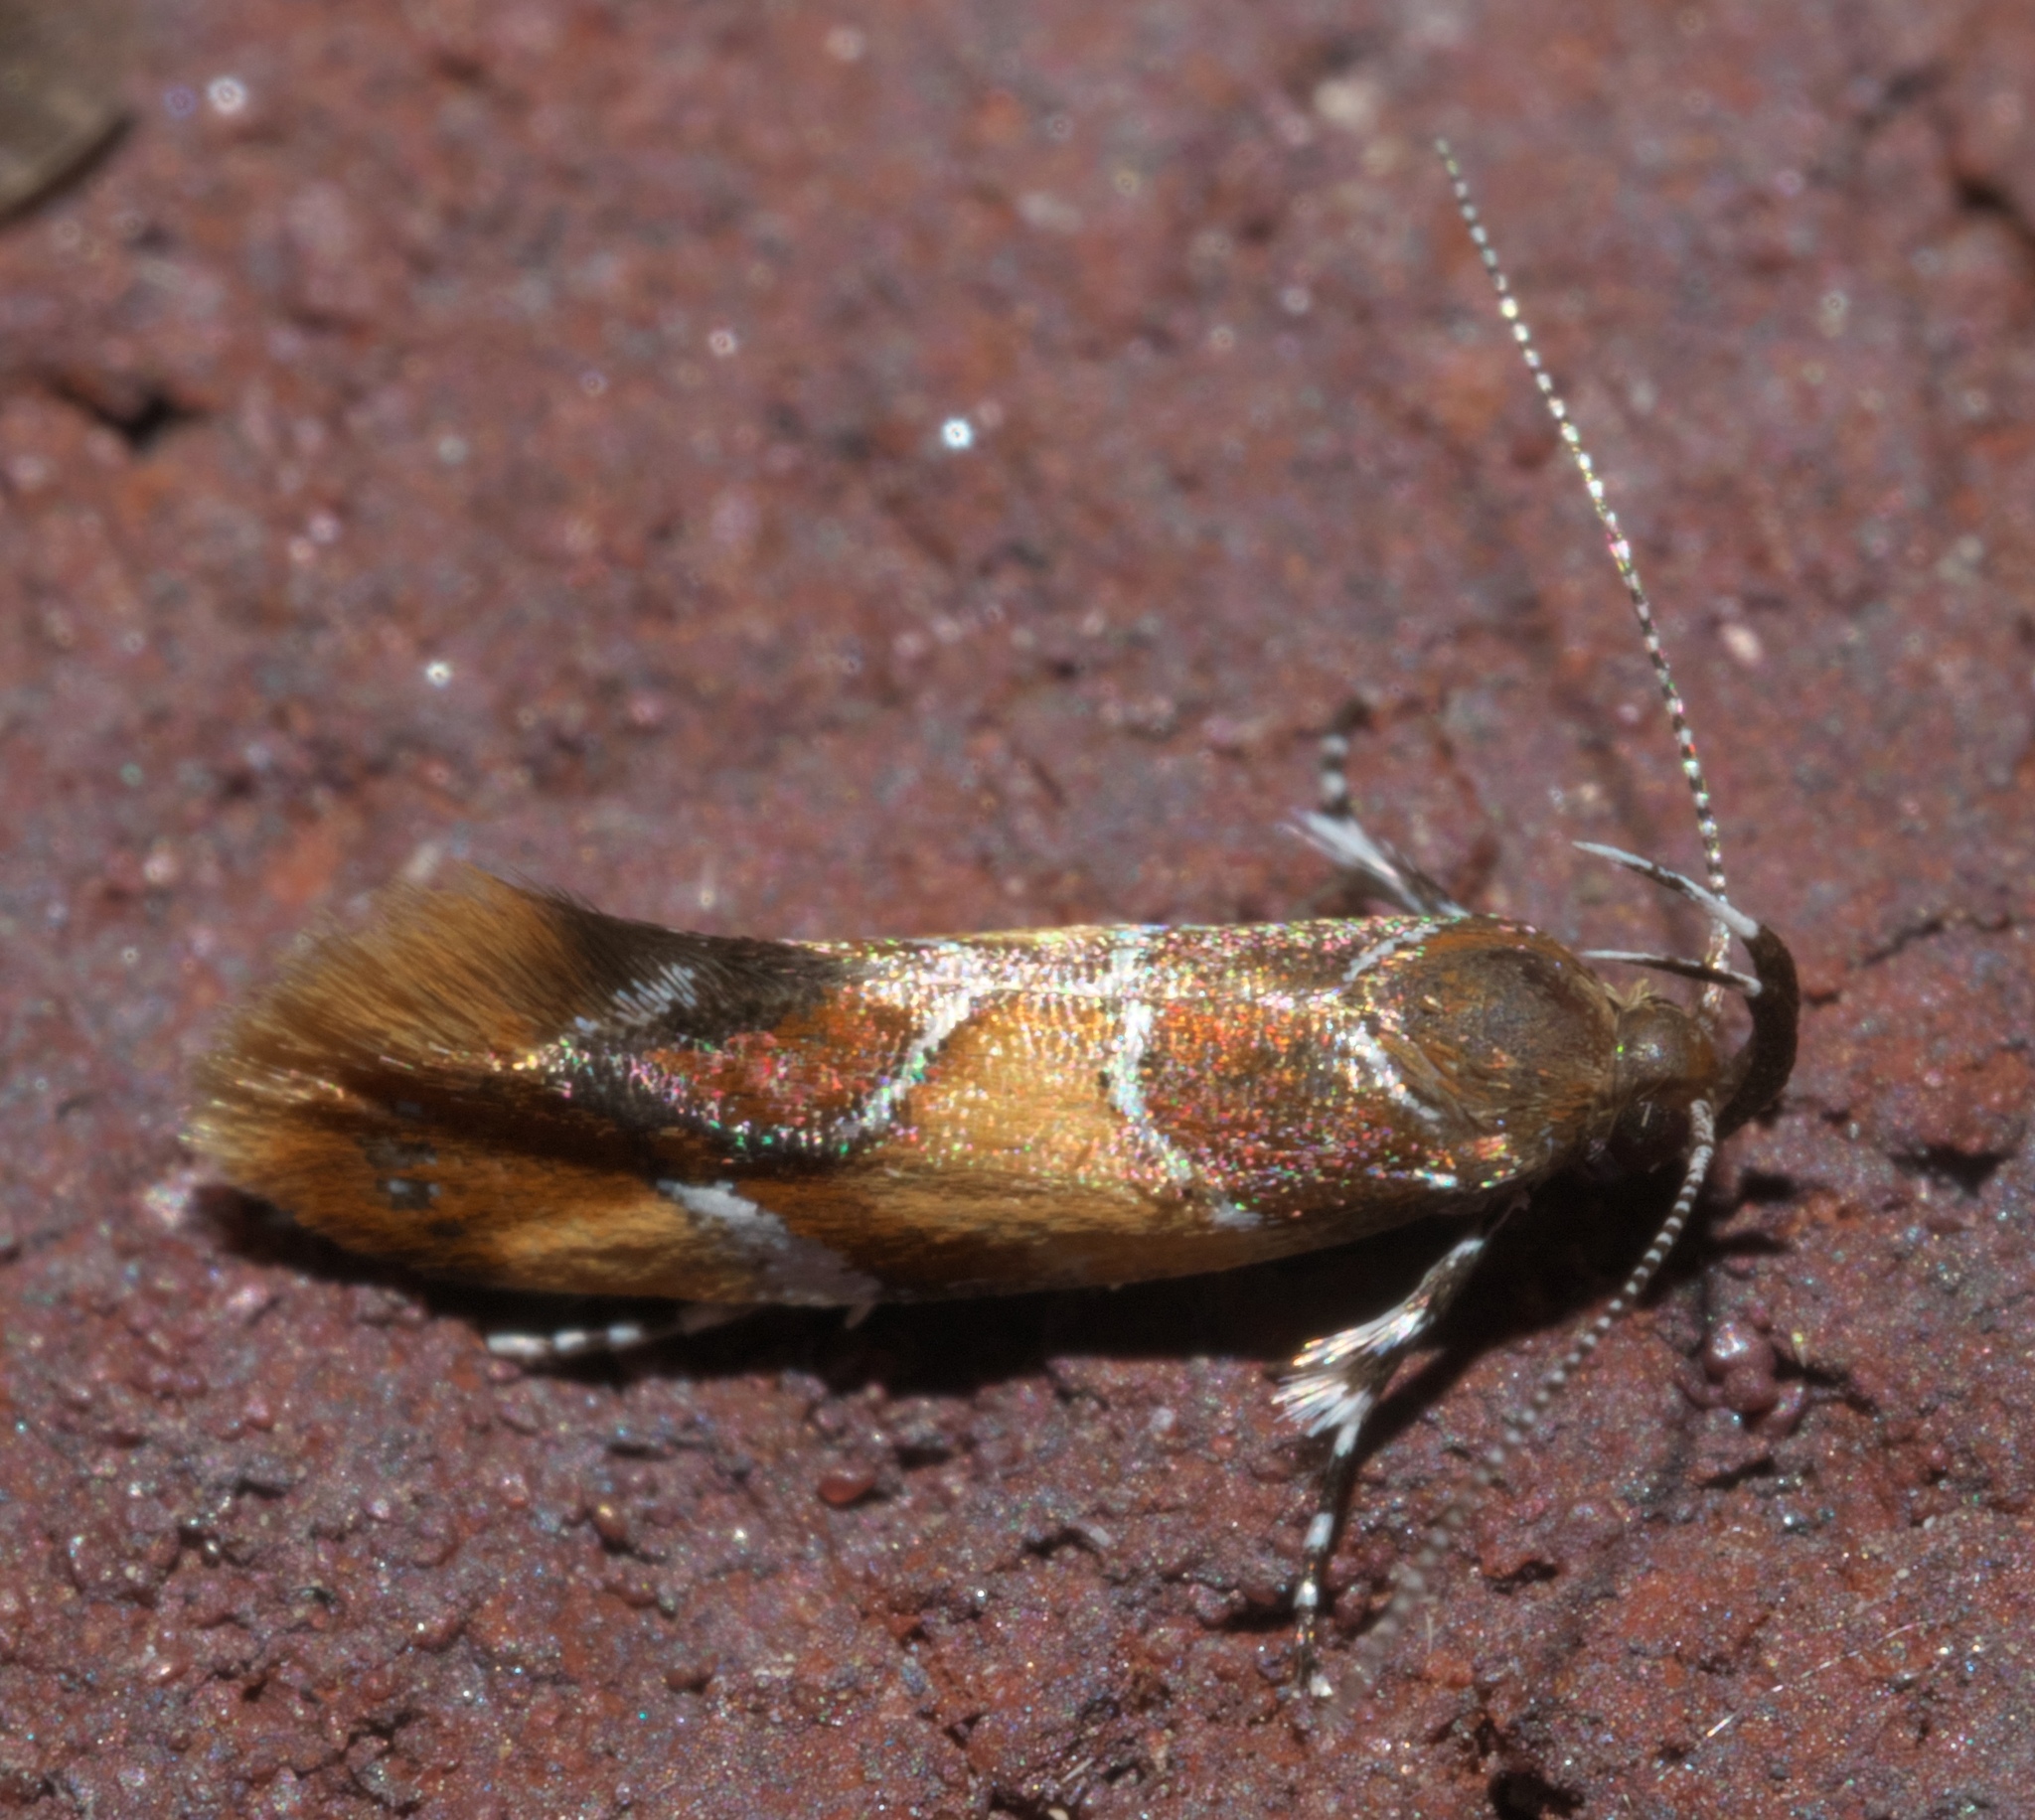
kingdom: Animalia
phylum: Arthropoda
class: Insecta
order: Lepidoptera
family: Oecophoridae
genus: Callima
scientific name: Callima argenticinctella
